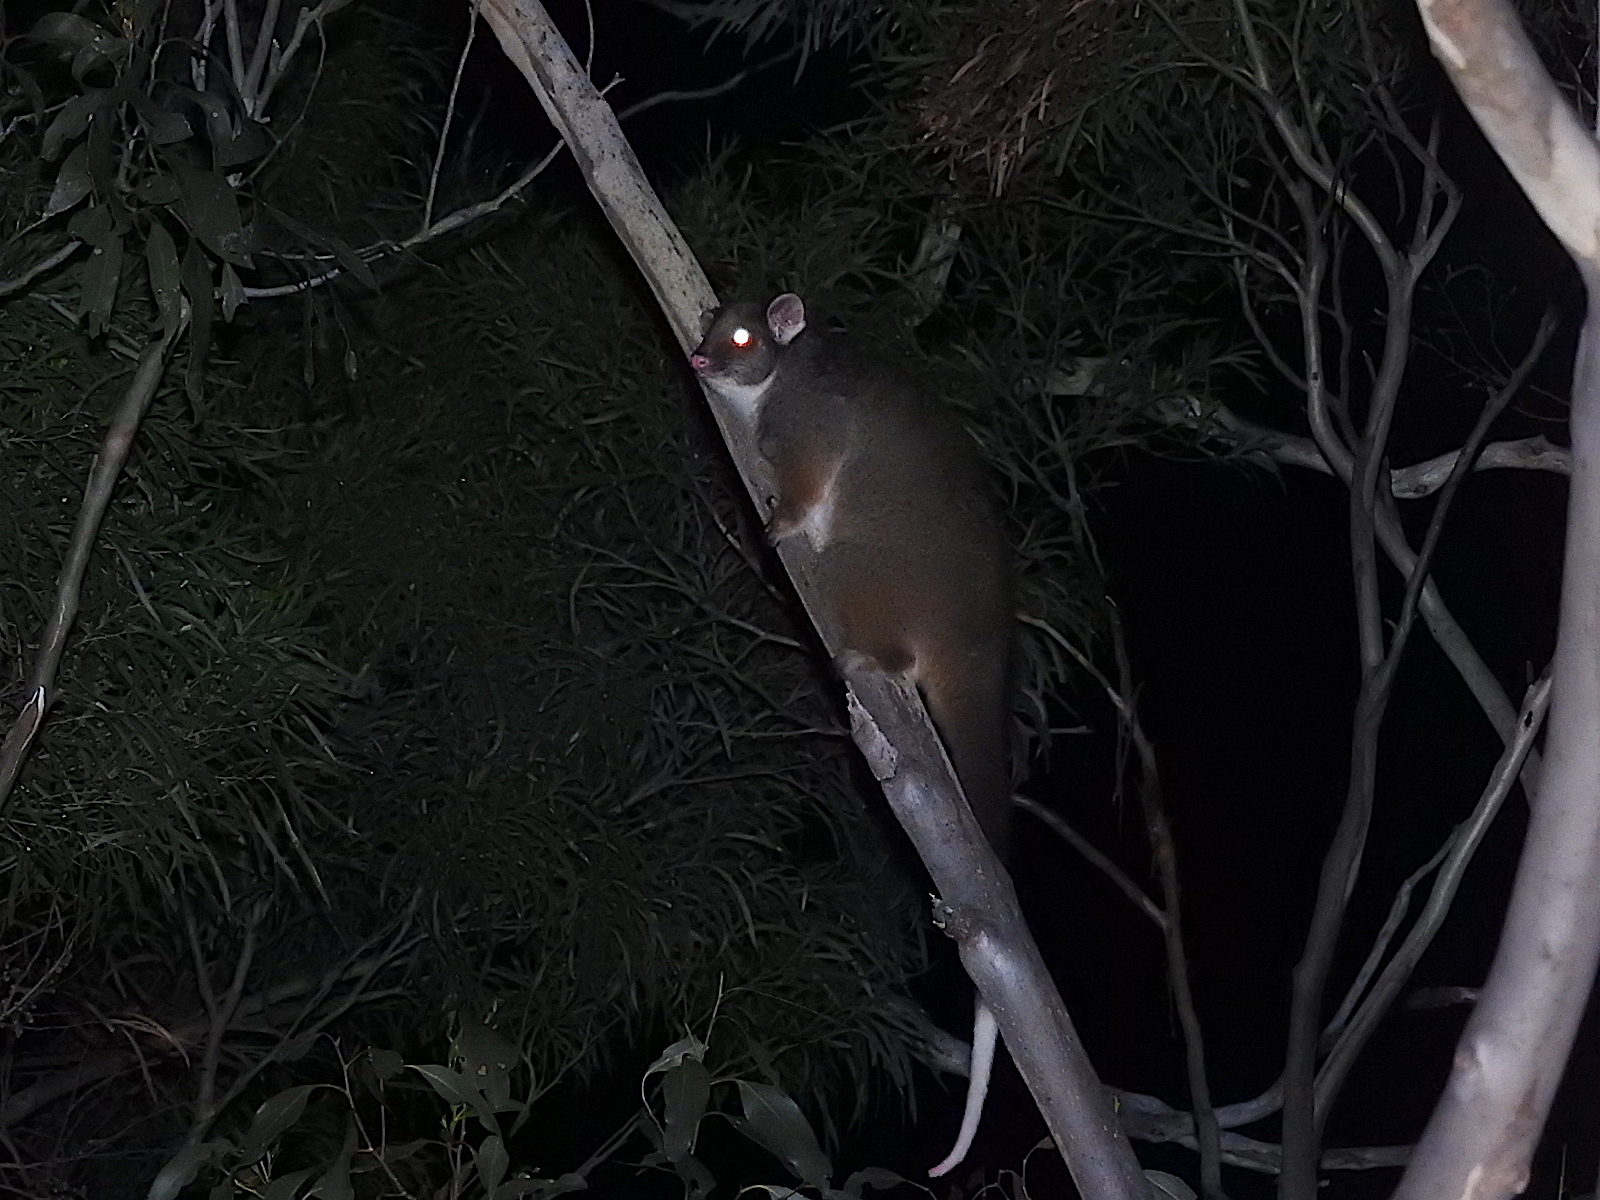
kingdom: Animalia
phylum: Chordata
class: Mammalia
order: Diprotodontia
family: Pseudocheiridae
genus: Pseudocheirus
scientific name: Pseudocheirus peregrinus
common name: Common ringtail possum
